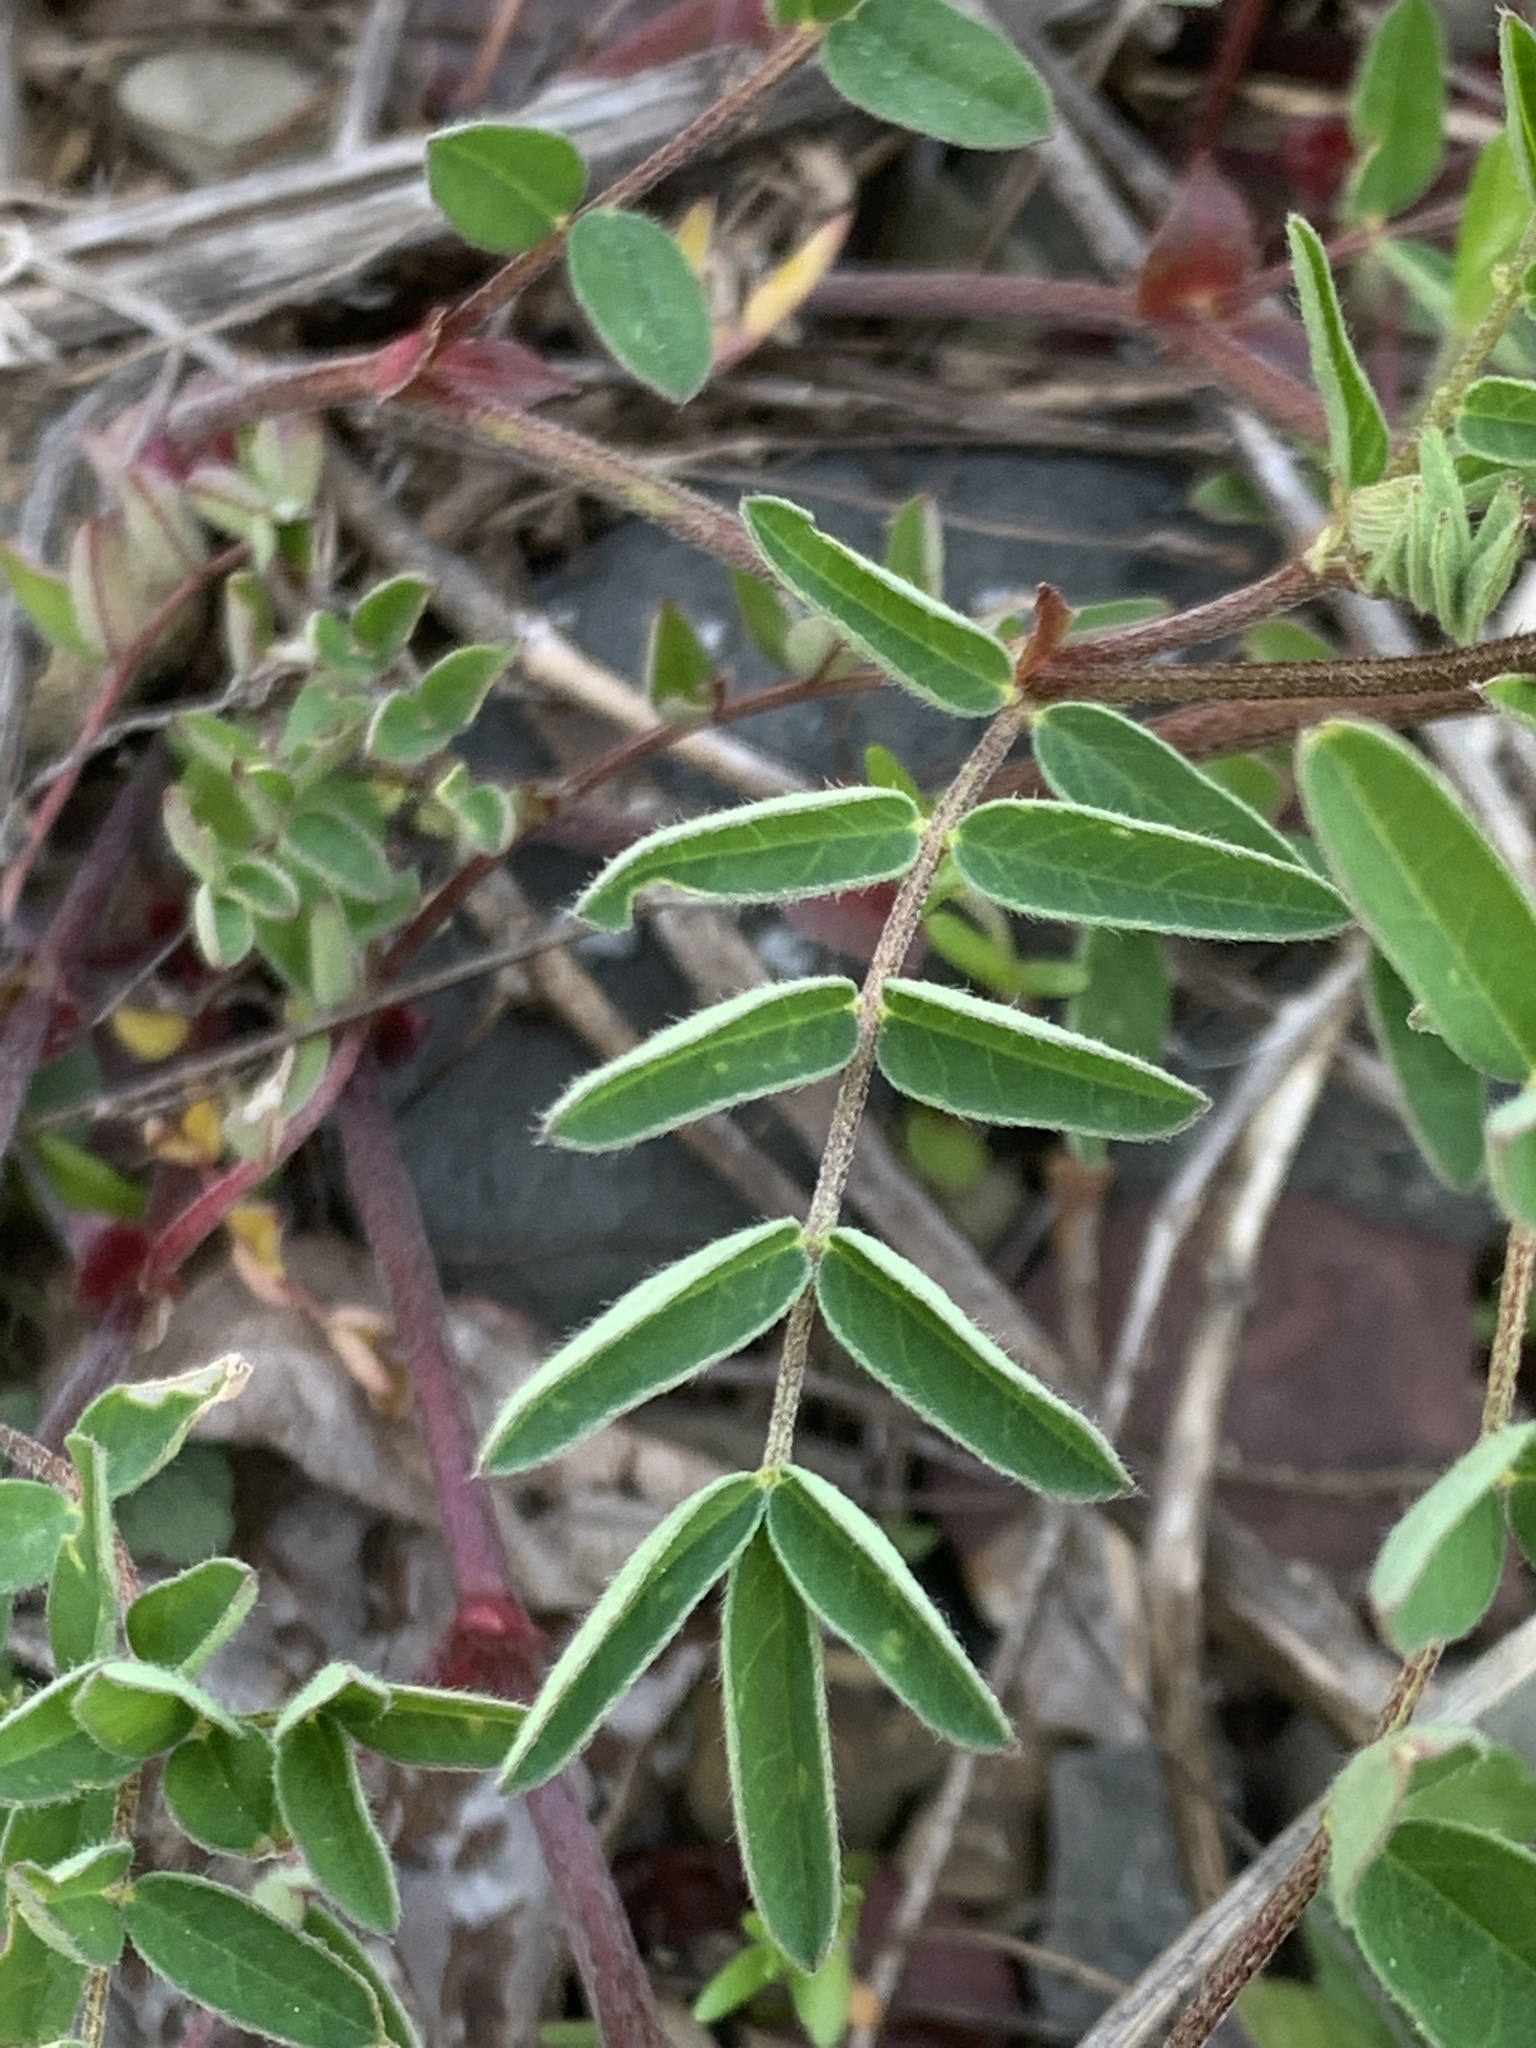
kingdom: Plantae
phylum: Tracheophyta
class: Magnoliopsida
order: Fabales
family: Fabaceae
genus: Astragalus
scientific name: Astragalus robbinsii
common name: Robbins' milk-vetch
